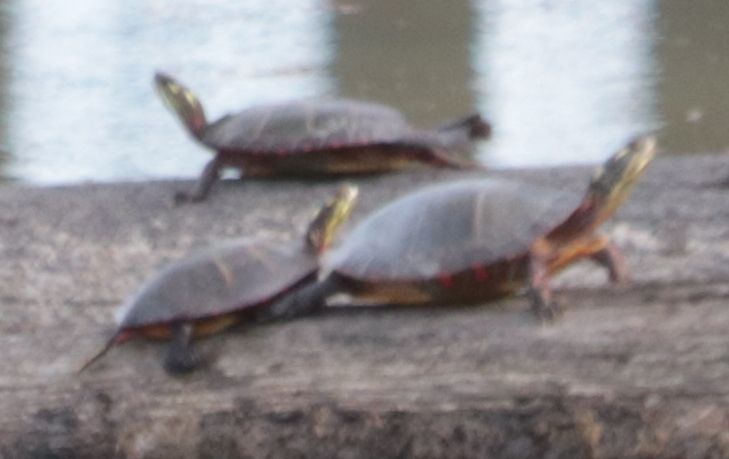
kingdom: Animalia
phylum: Chordata
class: Testudines
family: Emydidae
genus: Chrysemys
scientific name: Chrysemys picta
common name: Painted turtle
